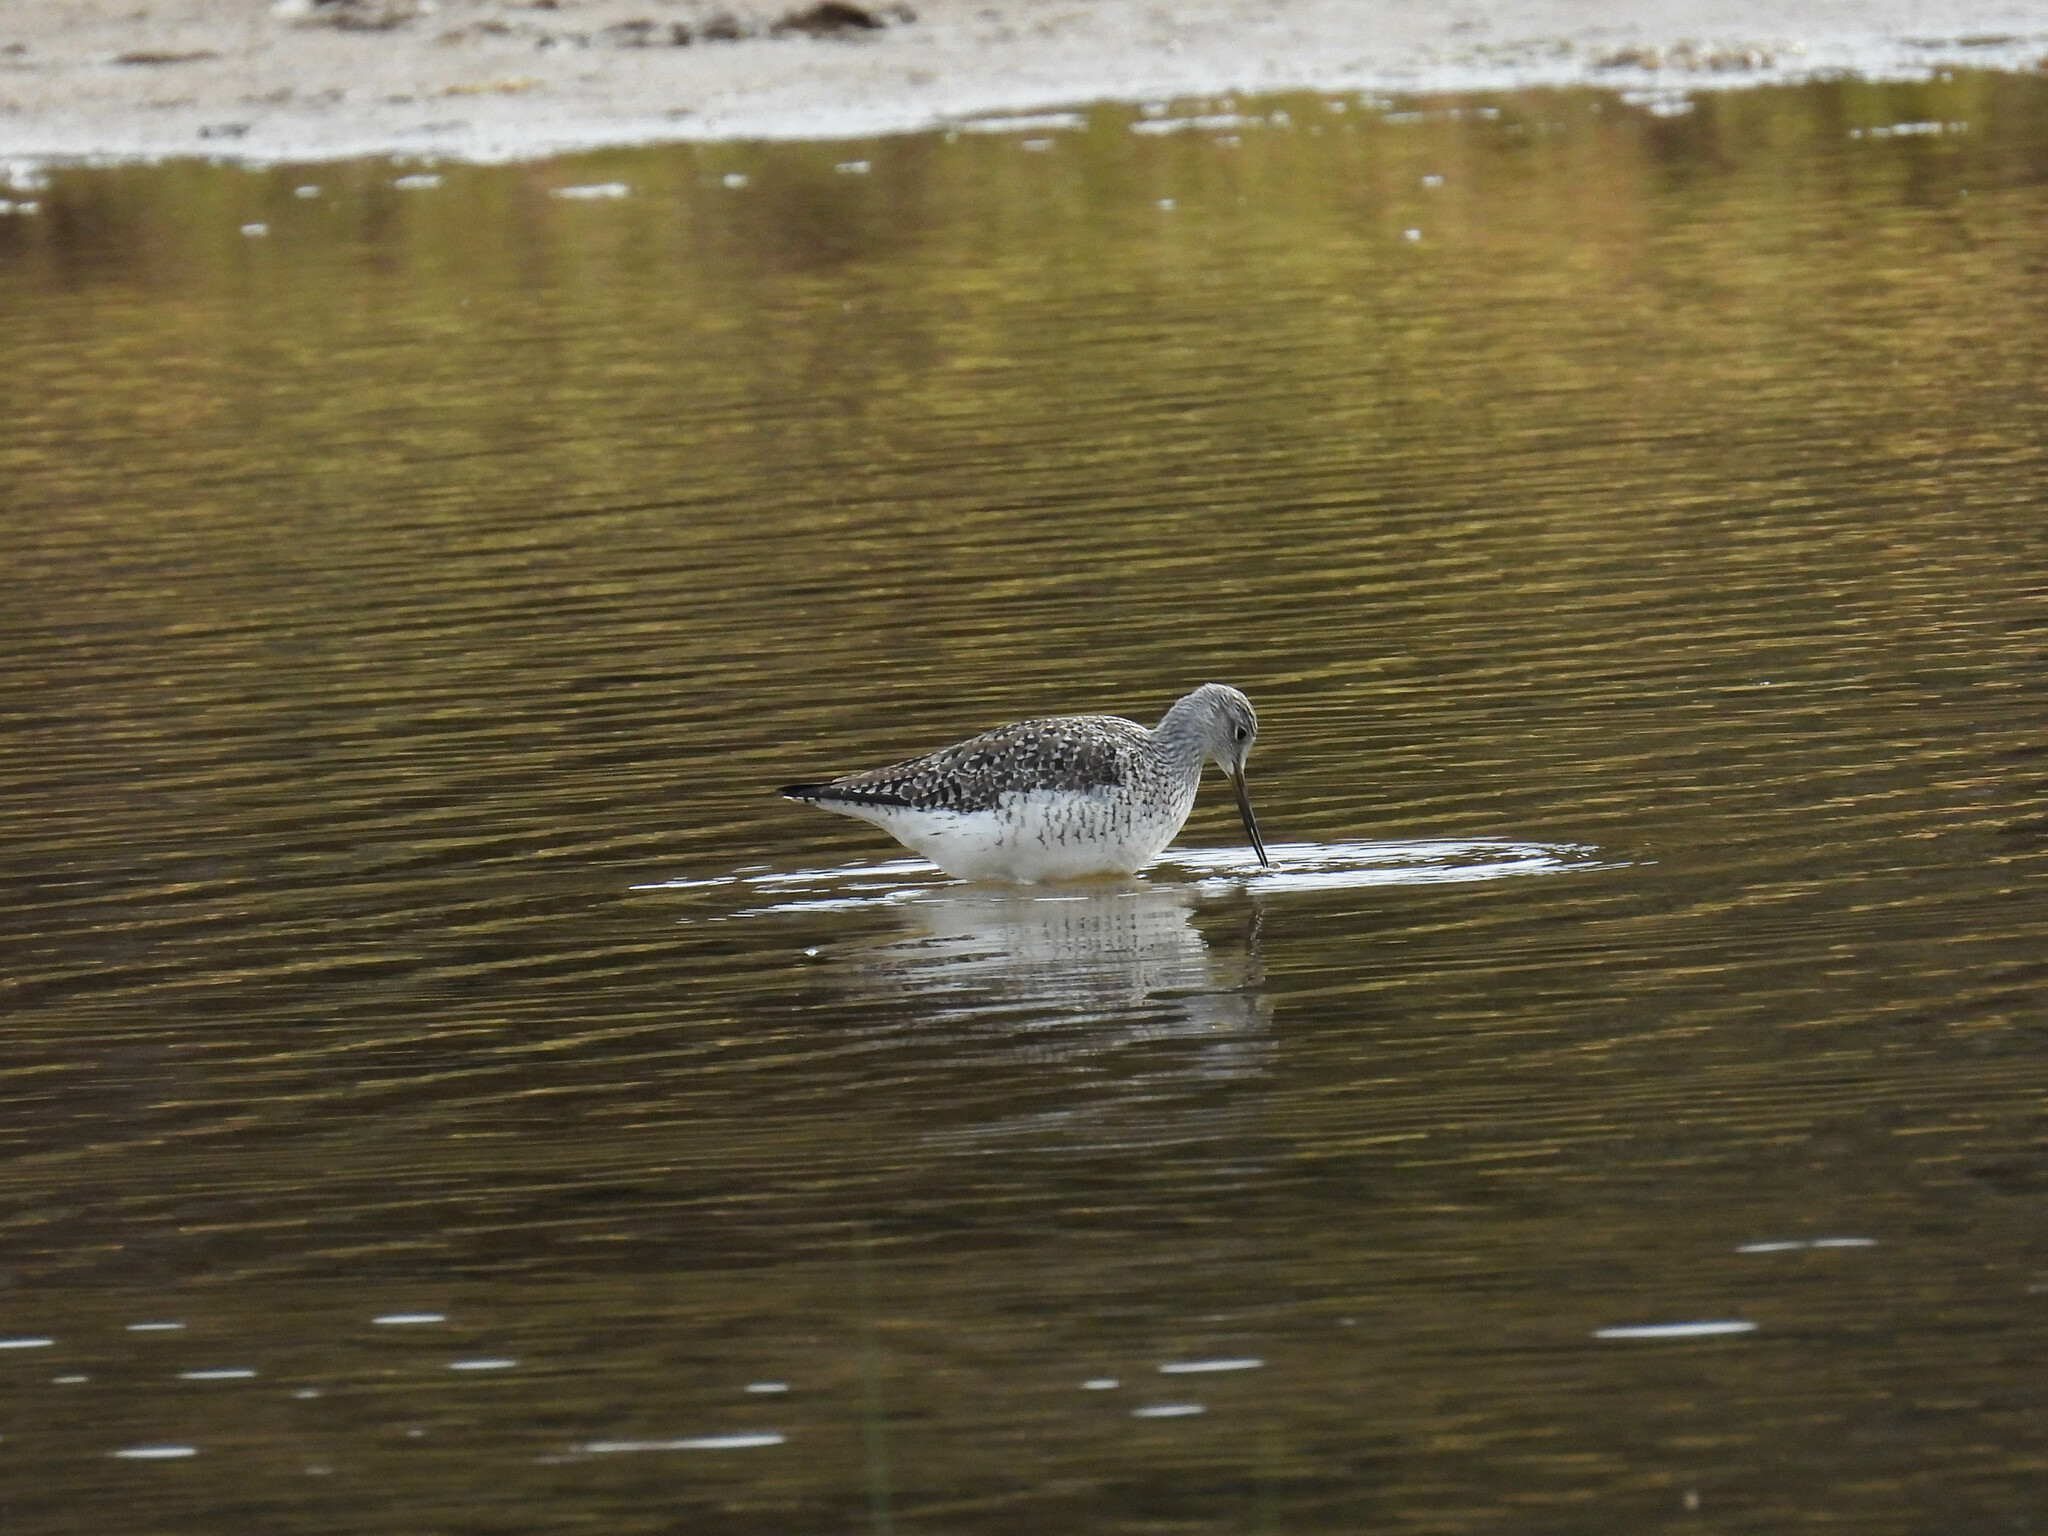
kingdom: Animalia
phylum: Chordata
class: Aves
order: Charadriiformes
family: Scolopacidae
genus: Tringa
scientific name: Tringa melanoleuca
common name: Greater yellowlegs
